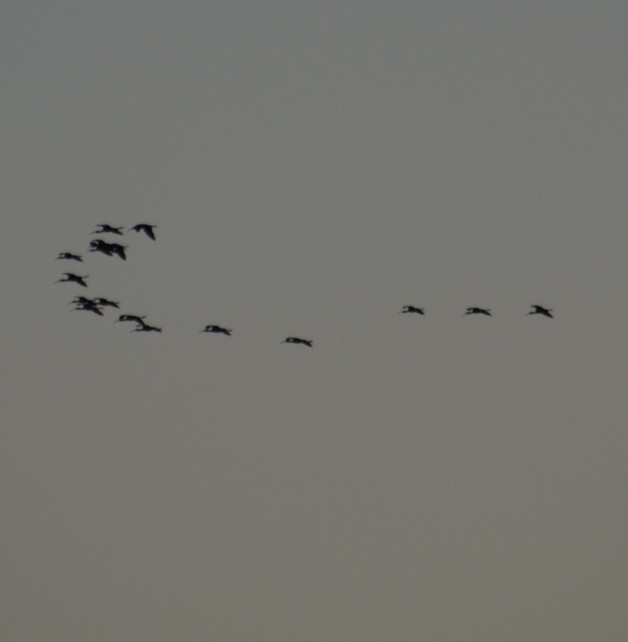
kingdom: Animalia
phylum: Chordata
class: Aves
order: Pelecaniformes
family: Threskiornithidae
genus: Plegadis
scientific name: Plegadis chihi
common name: White-faced ibis
